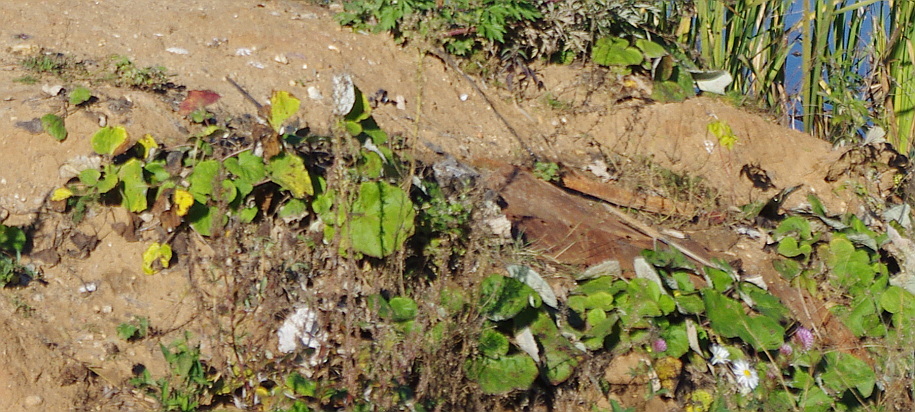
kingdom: Plantae
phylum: Tracheophyta
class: Magnoliopsida
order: Asterales
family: Asteraceae
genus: Tussilago
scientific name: Tussilago farfara
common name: Coltsfoot
